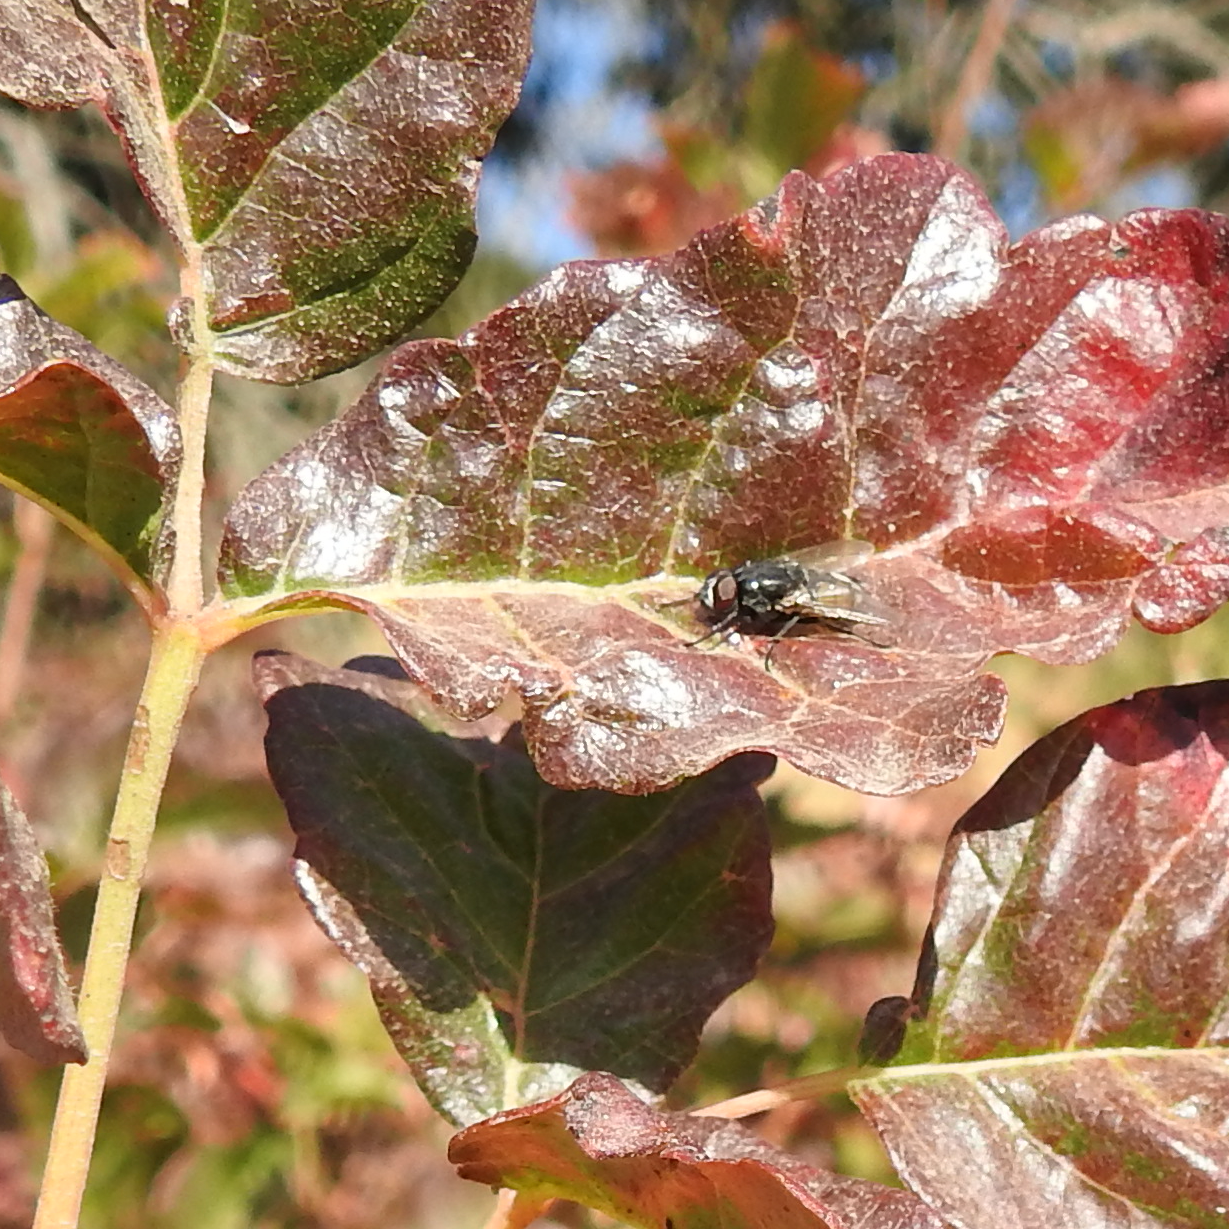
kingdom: Plantae
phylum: Tracheophyta
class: Magnoliopsida
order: Sapindales
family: Anacardiaceae
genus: Toxicodendron
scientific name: Toxicodendron diversilobum
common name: Pacific poison-oak
